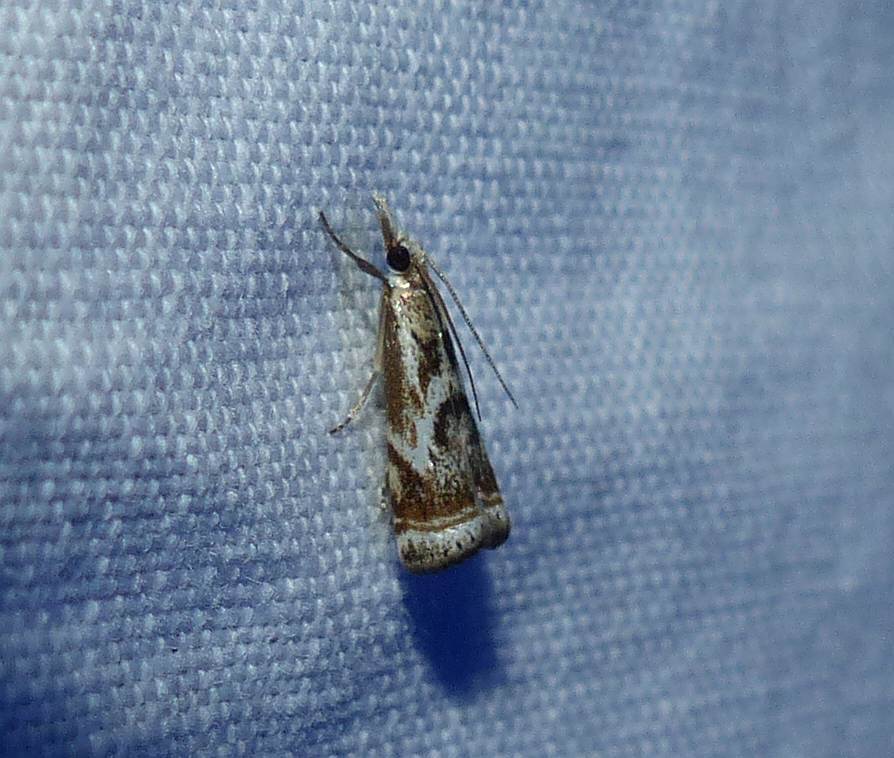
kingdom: Animalia
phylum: Arthropoda
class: Insecta
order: Lepidoptera
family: Crambidae
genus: Microcrambus
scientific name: Microcrambus elegans
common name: Elegant grass-veneer
